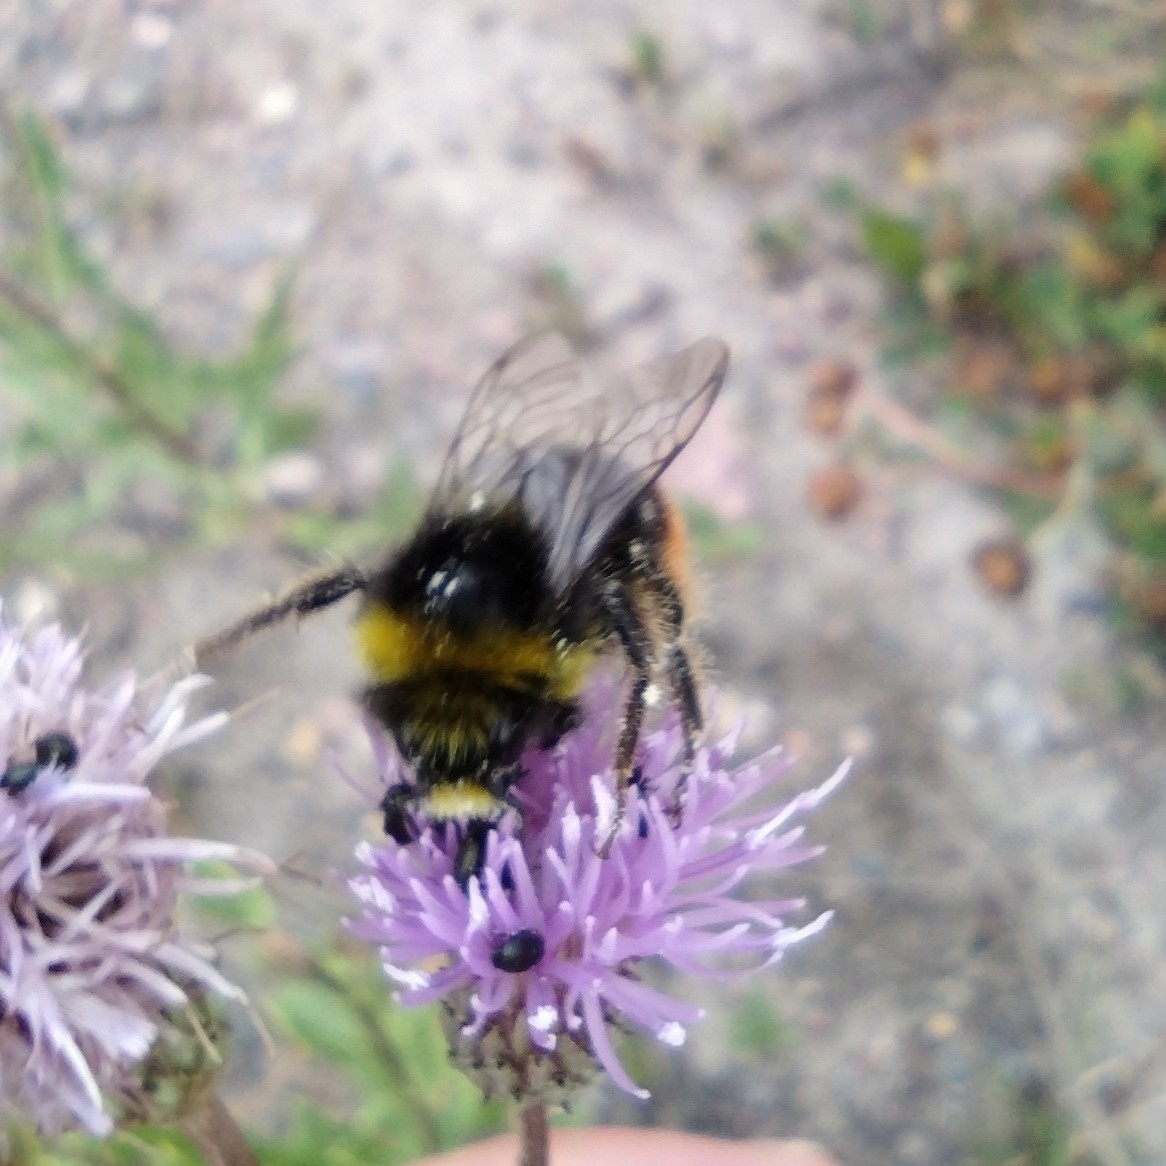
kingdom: Animalia
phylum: Arthropoda
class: Insecta
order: Hymenoptera
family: Apidae
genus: Bombus
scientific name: Bombus lapidarius
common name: Large red-tailed humble-bee
